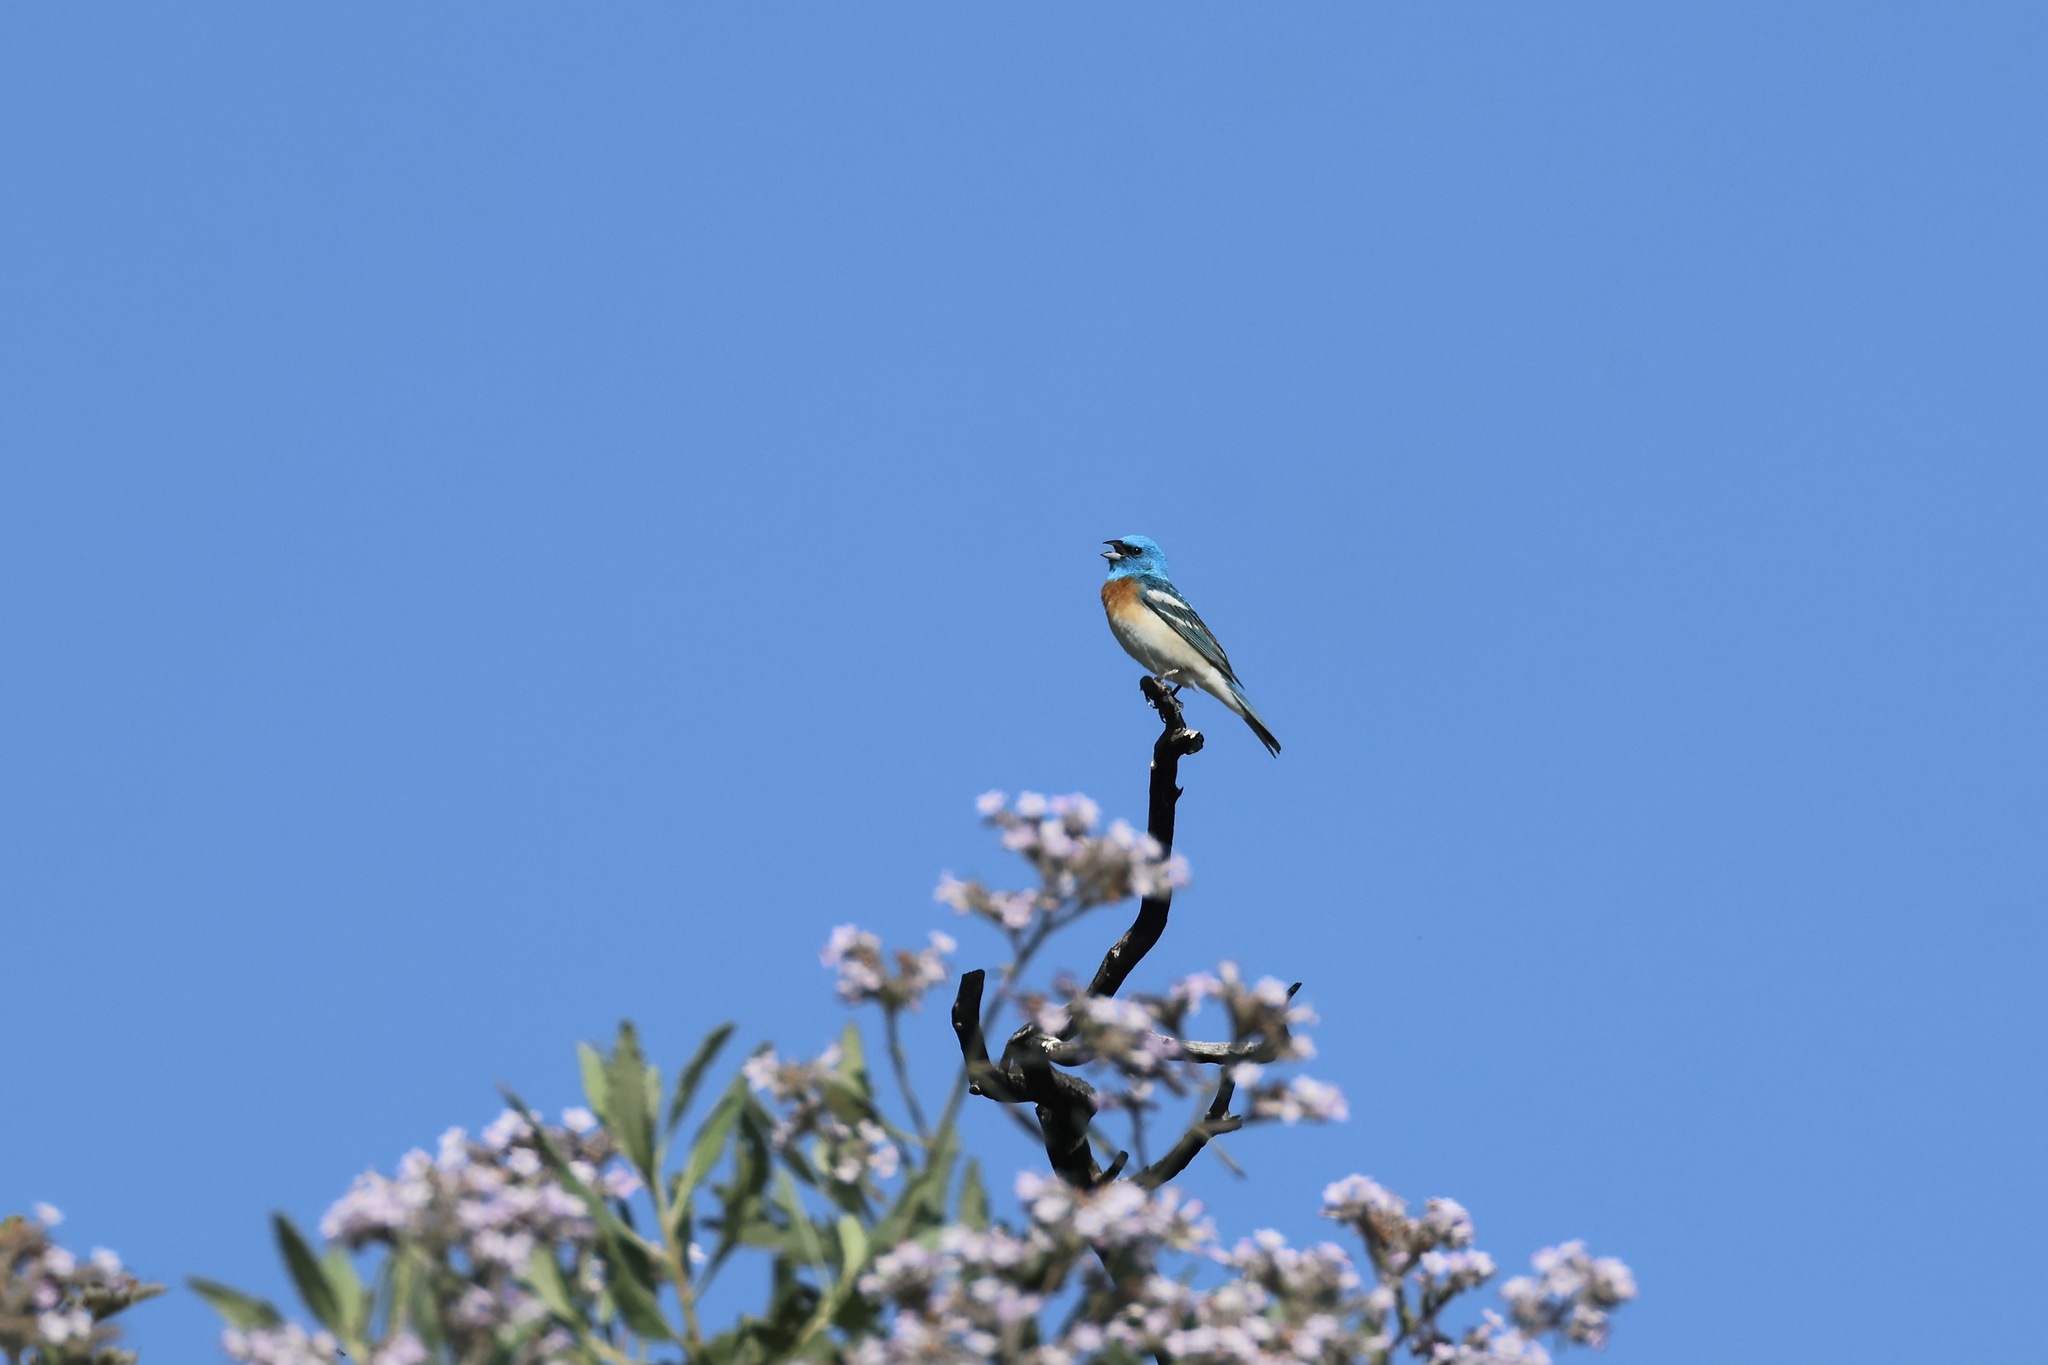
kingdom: Animalia
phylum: Chordata
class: Aves
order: Passeriformes
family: Cardinalidae
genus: Passerina
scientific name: Passerina amoena
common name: Lazuli bunting
